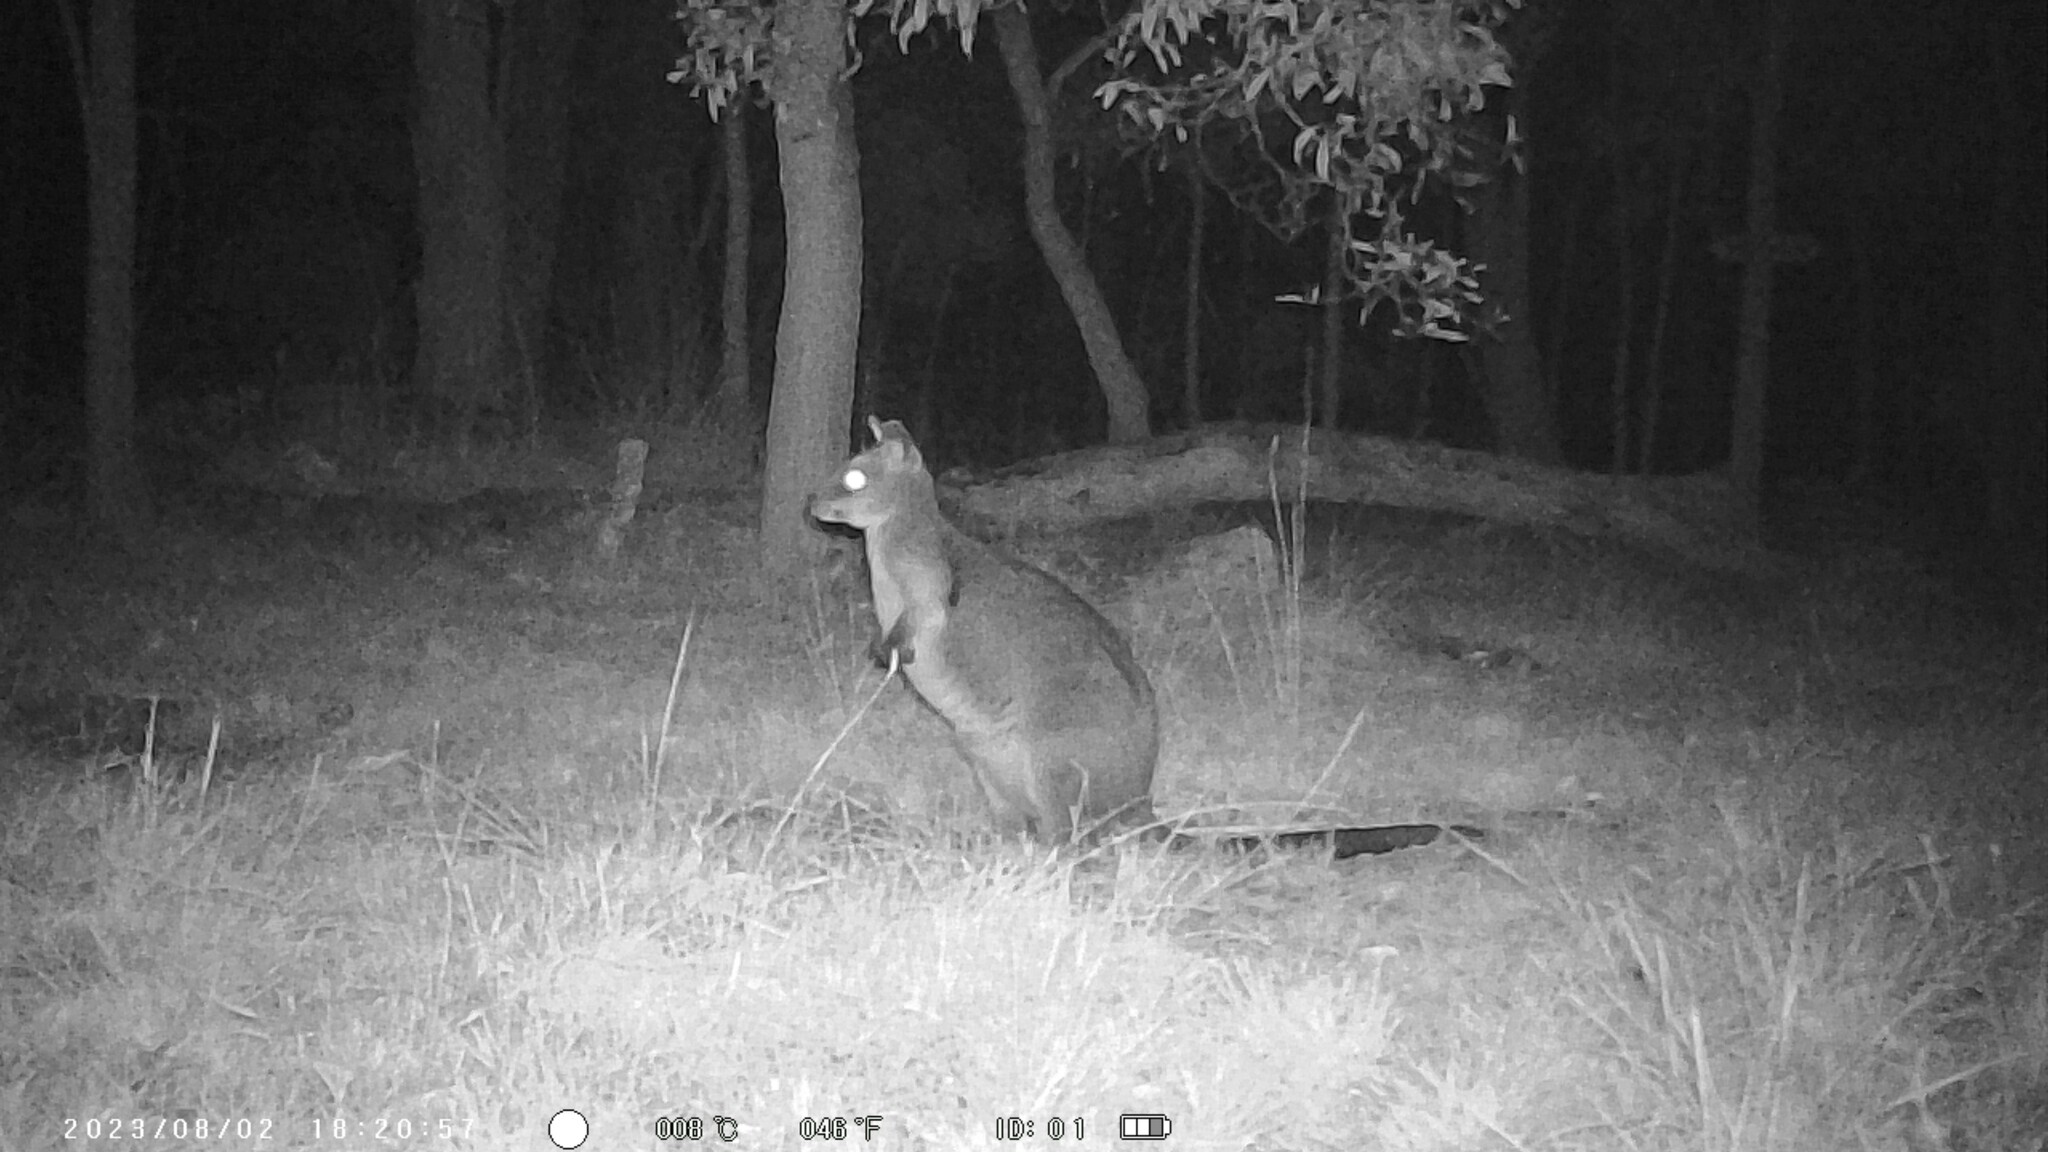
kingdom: Animalia
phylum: Chordata
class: Mammalia
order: Diprotodontia
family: Macropodidae
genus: Wallabia
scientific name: Wallabia bicolor
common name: Swamp wallaby
